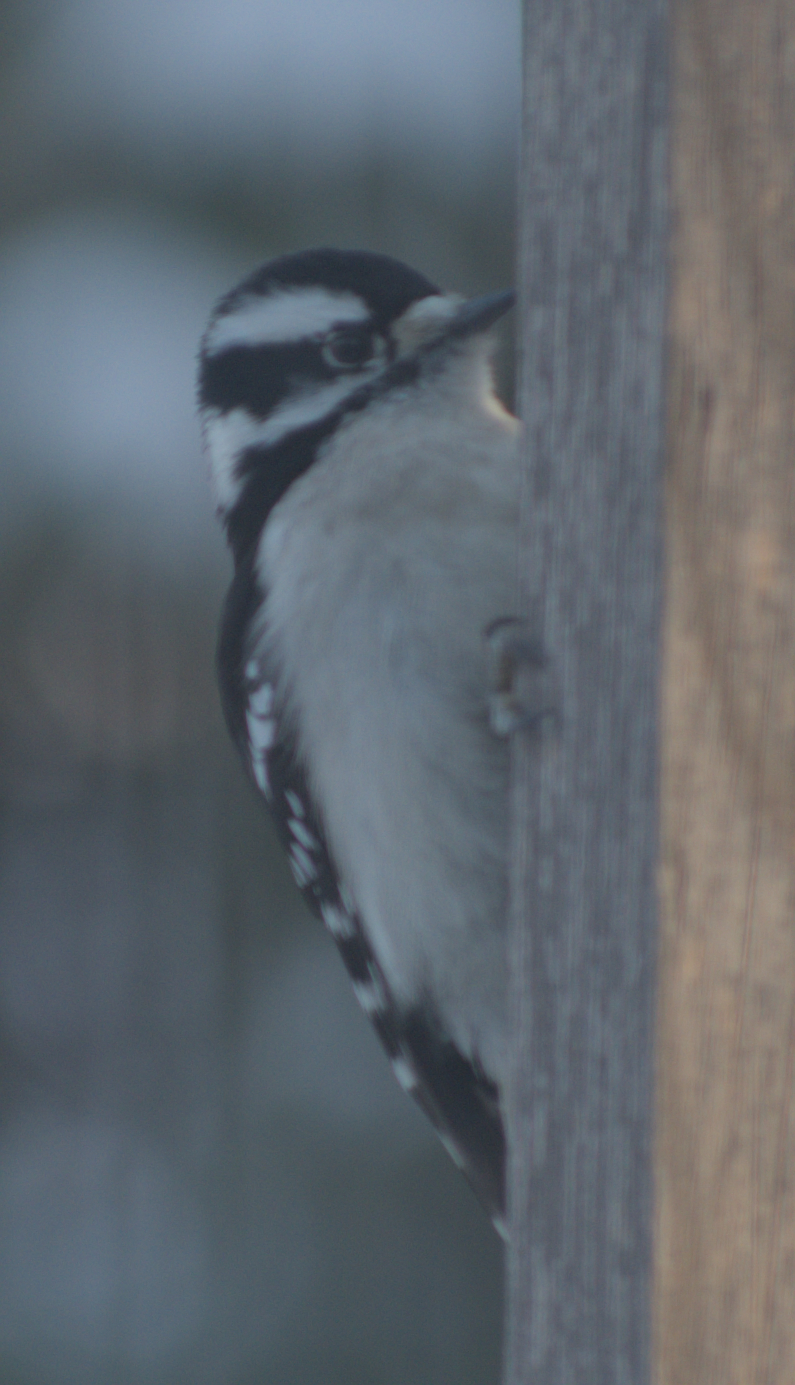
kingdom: Animalia
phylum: Chordata
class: Aves
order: Piciformes
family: Picidae
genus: Dryobates
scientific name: Dryobates pubescens
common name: Downy woodpecker
